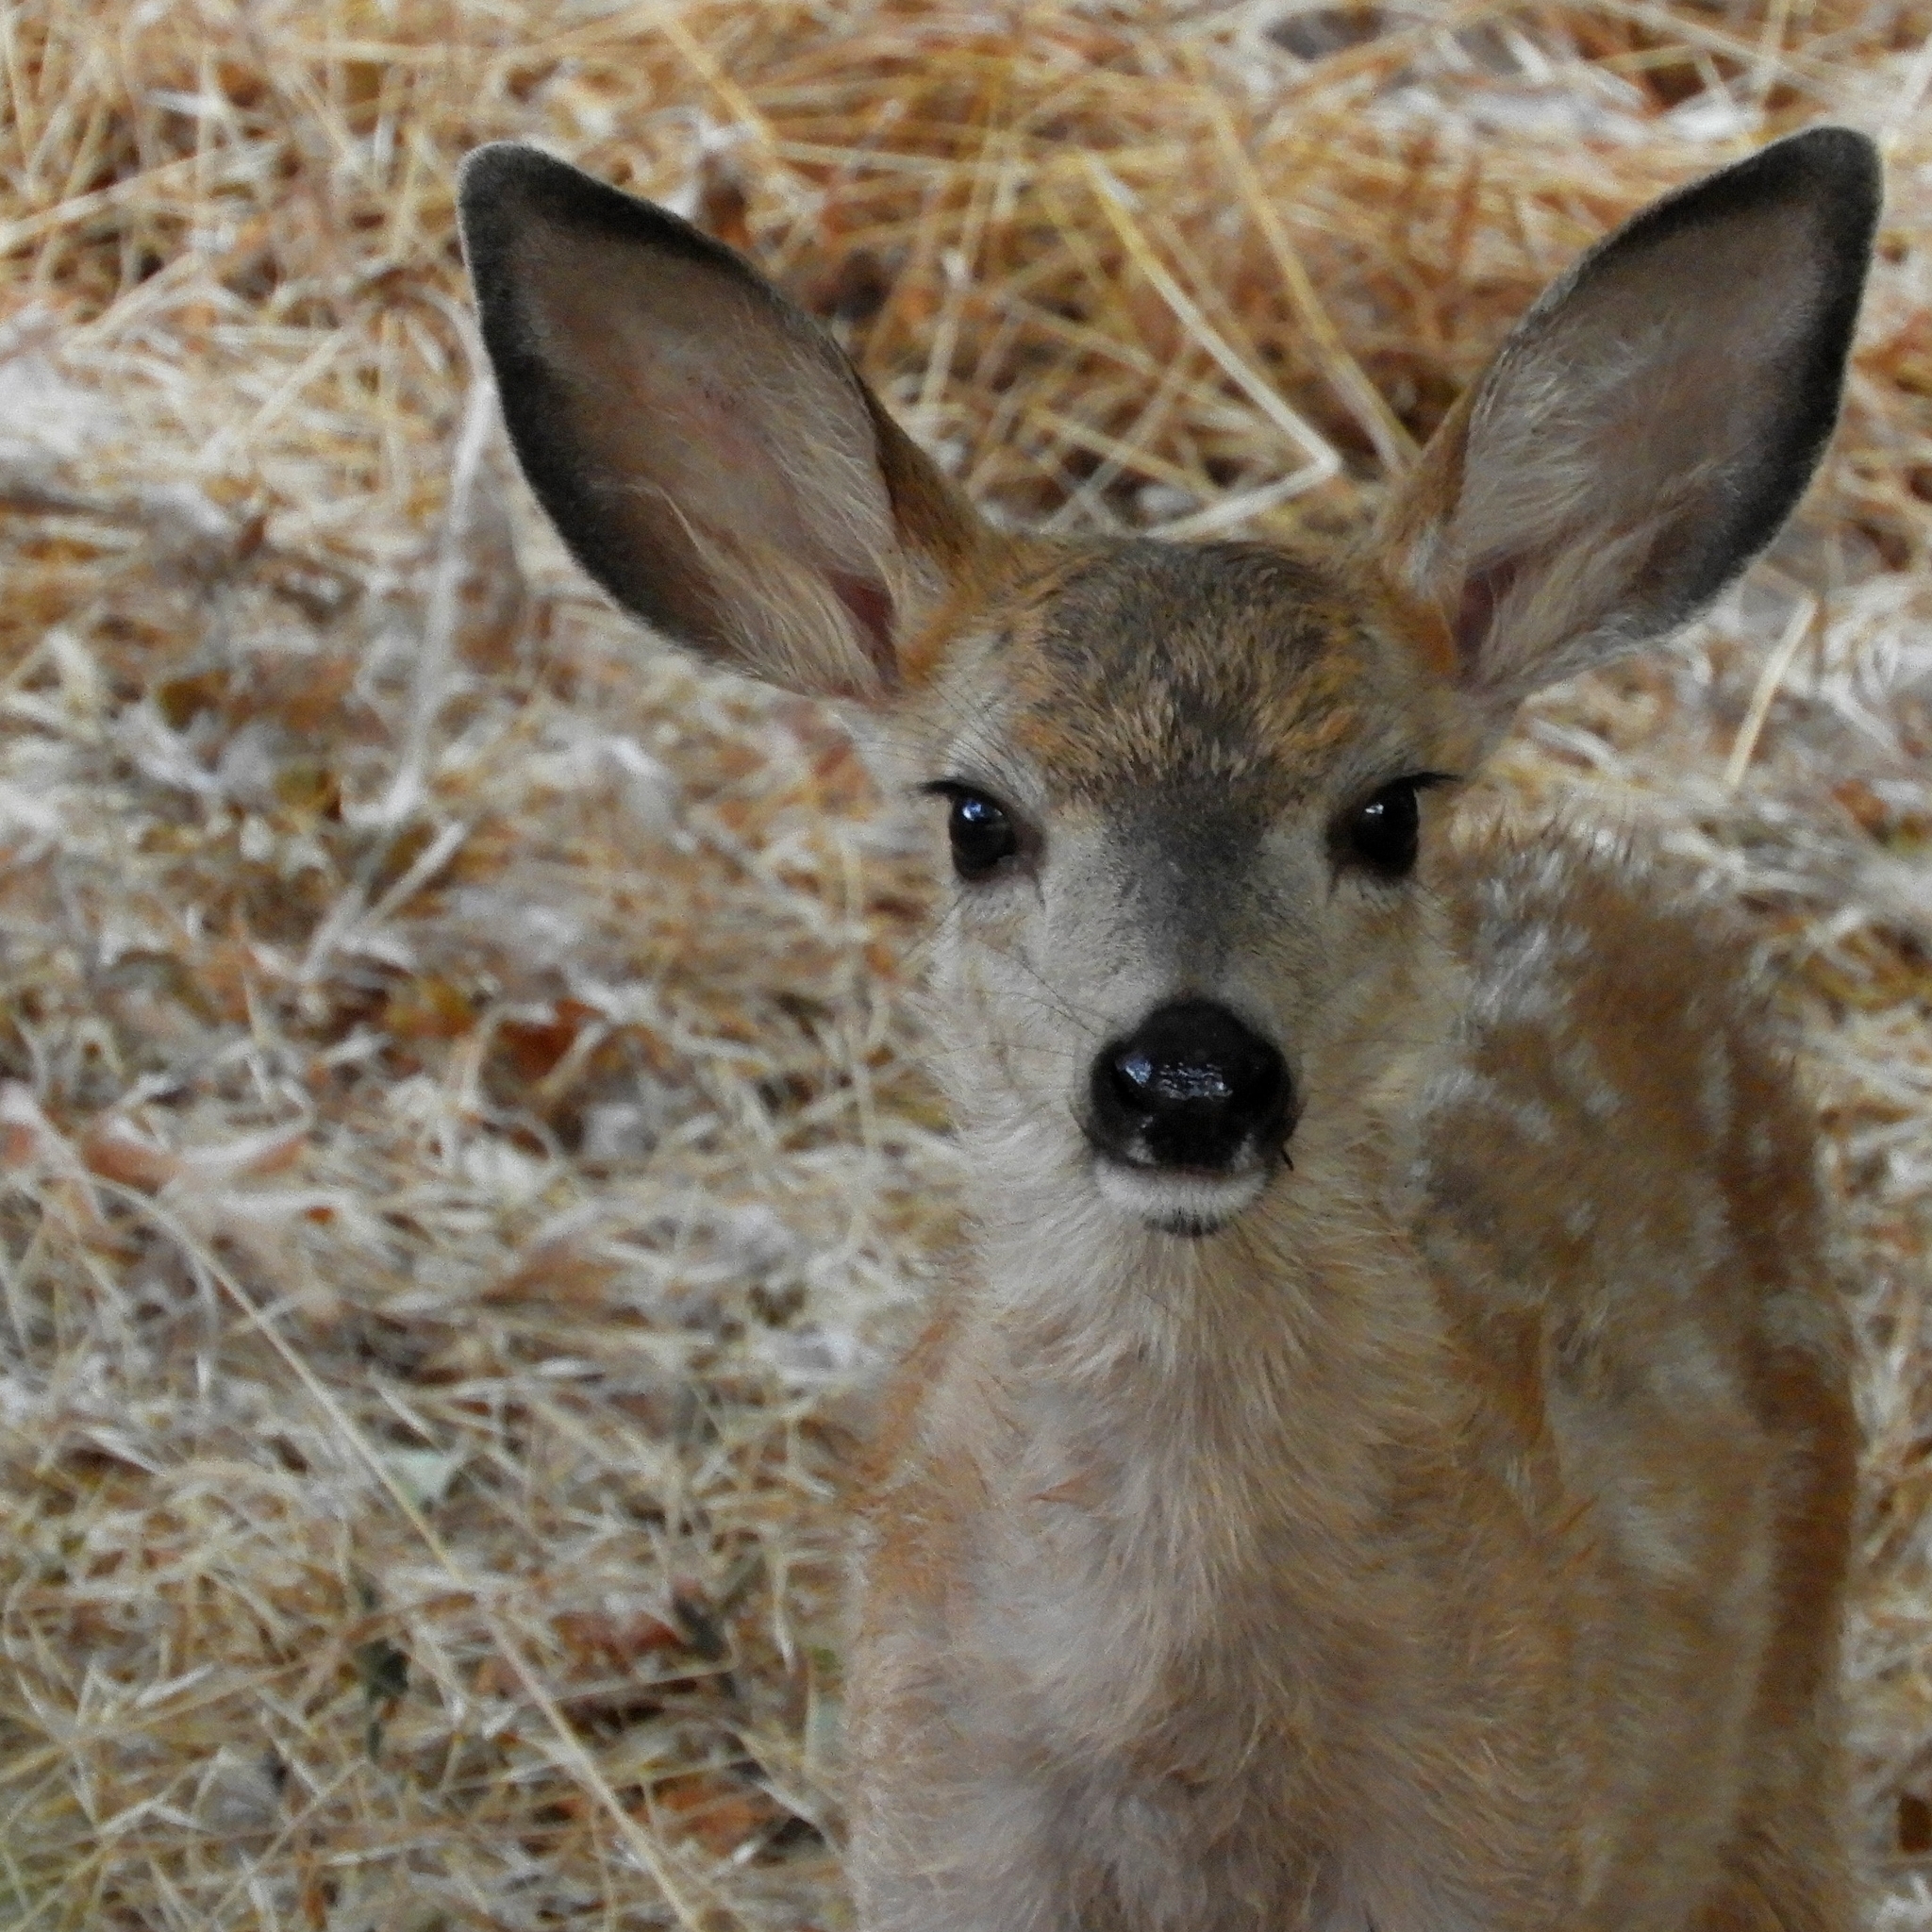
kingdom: Animalia
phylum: Chordata
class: Mammalia
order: Artiodactyla
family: Cervidae
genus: Odocoileus
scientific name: Odocoileus hemionus
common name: Mule deer
